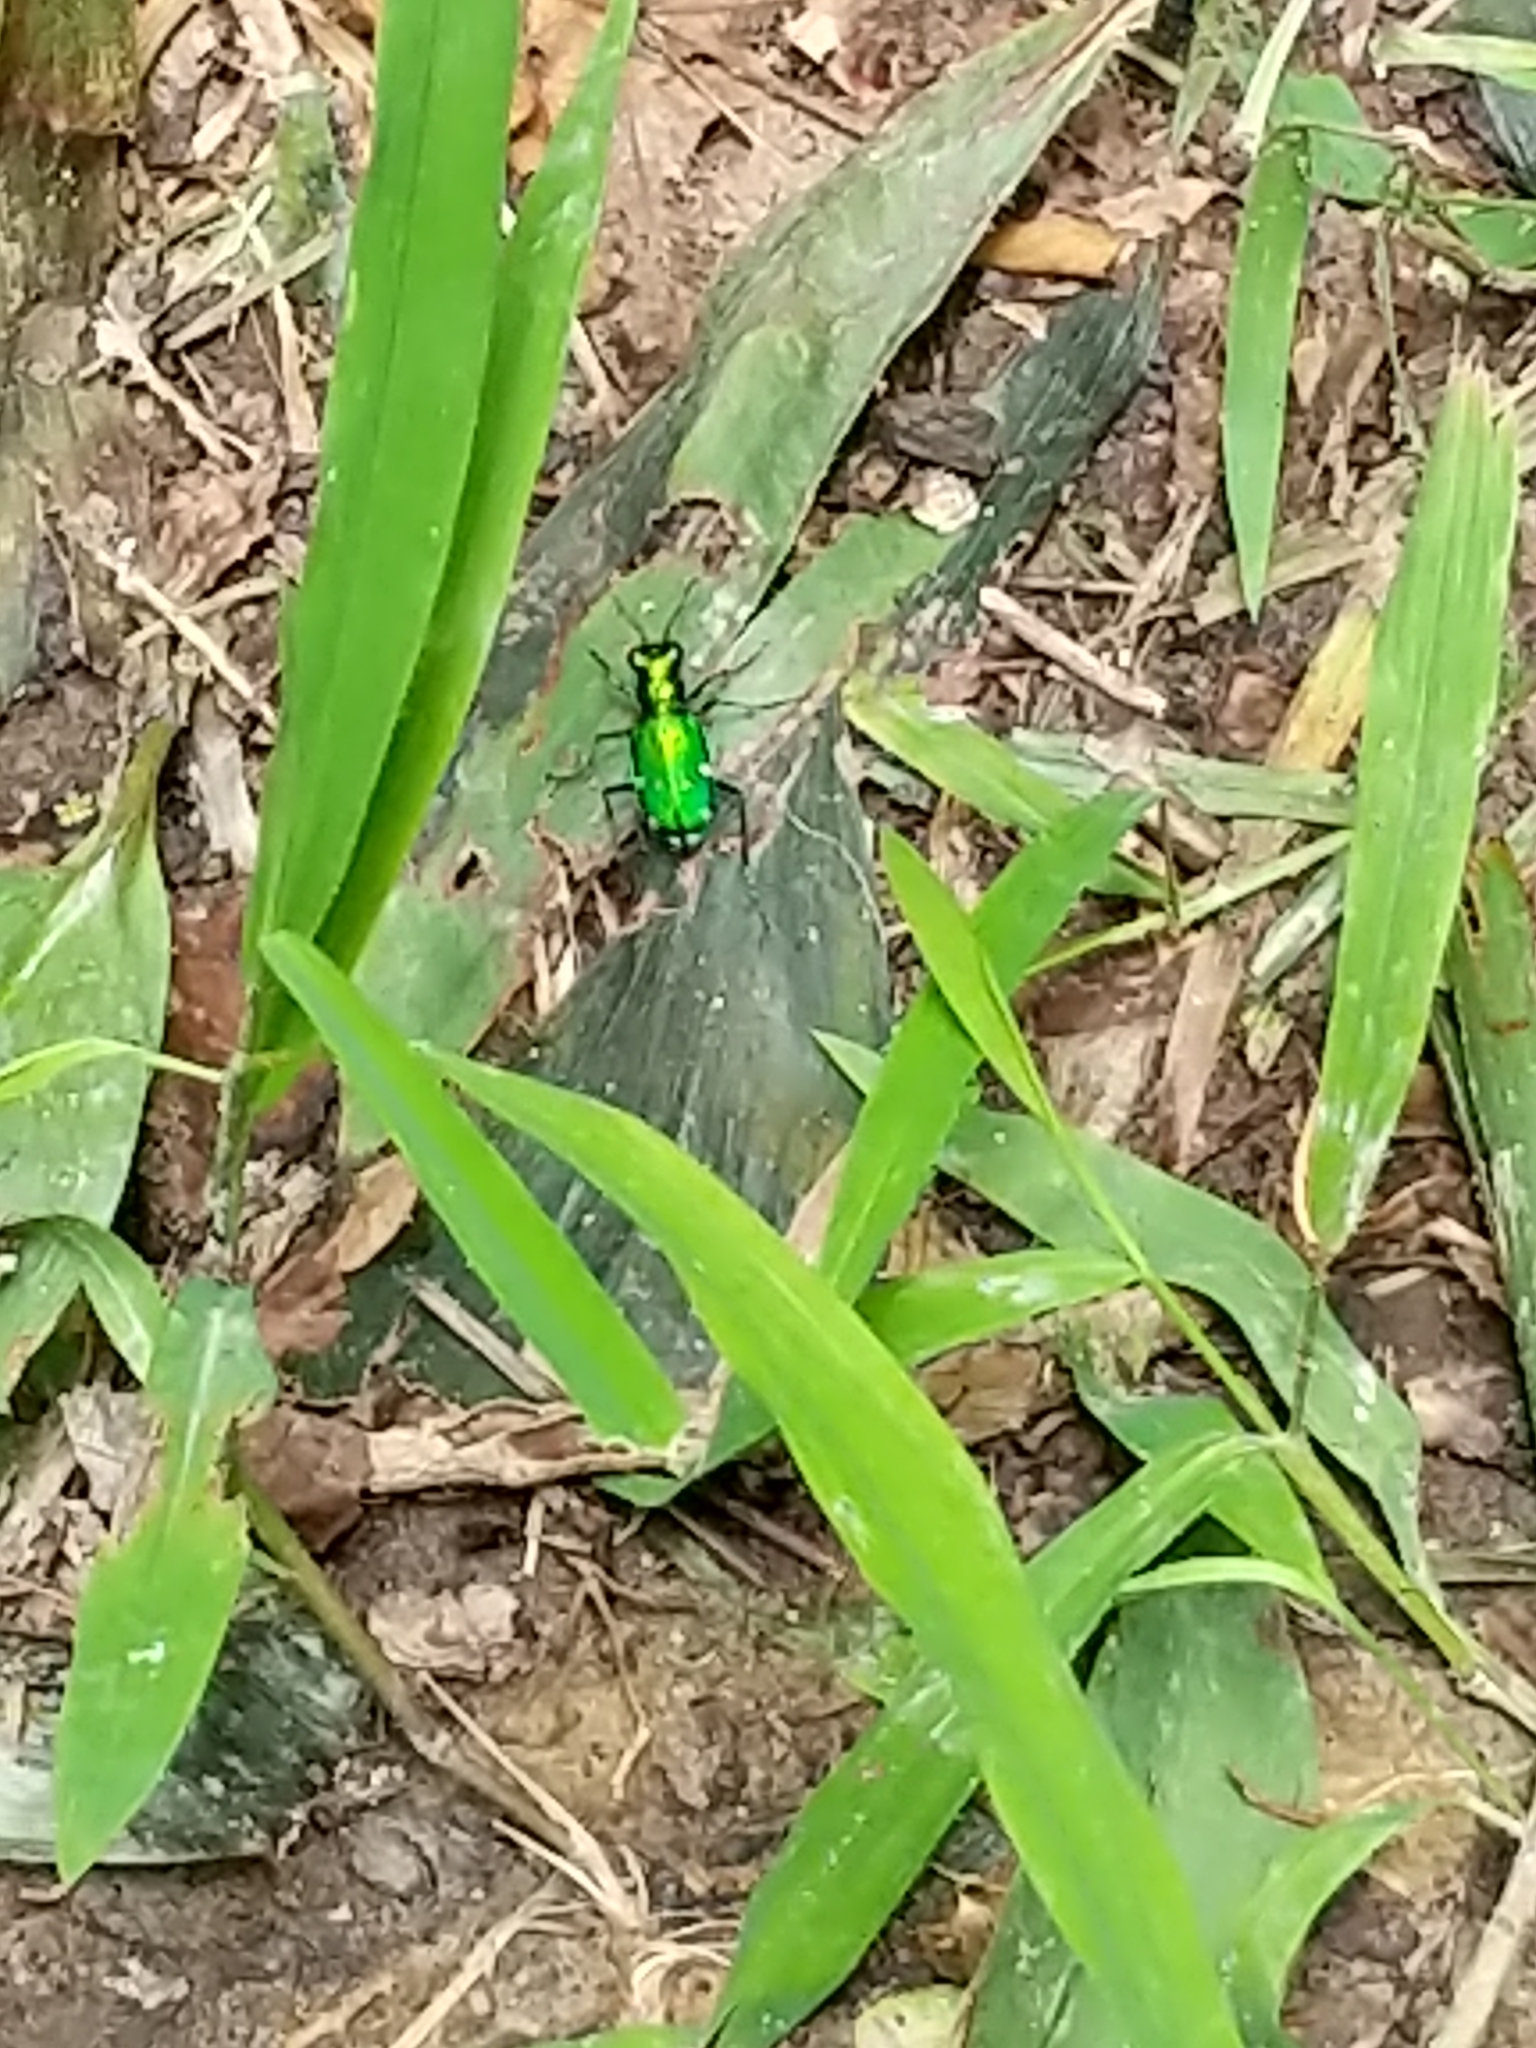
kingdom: Animalia
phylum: Arthropoda
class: Insecta
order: Coleoptera
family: Carabidae
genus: Cicindela
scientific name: Cicindela sexguttata
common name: Six-spotted tiger beetle
